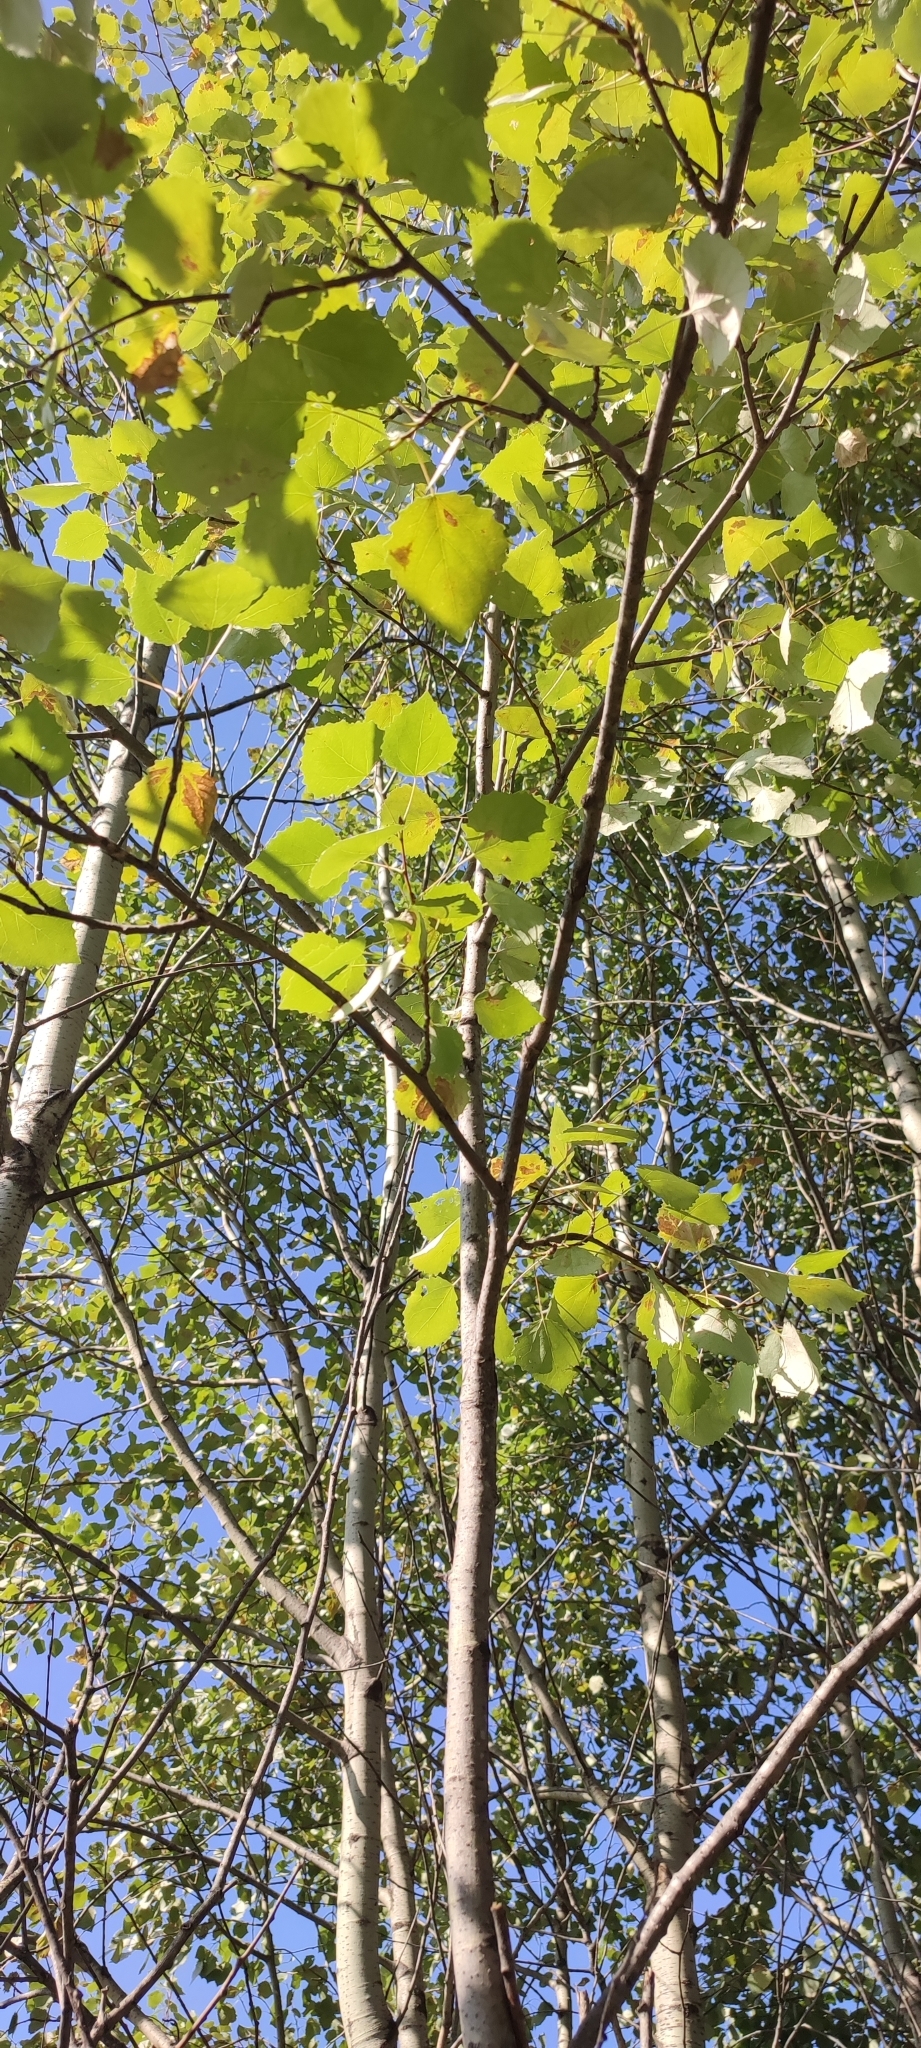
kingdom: Plantae
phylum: Tracheophyta
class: Magnoliopsida
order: Malpighiales
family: Salicaceae
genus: Populus
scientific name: Populus tremula
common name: European aspen
